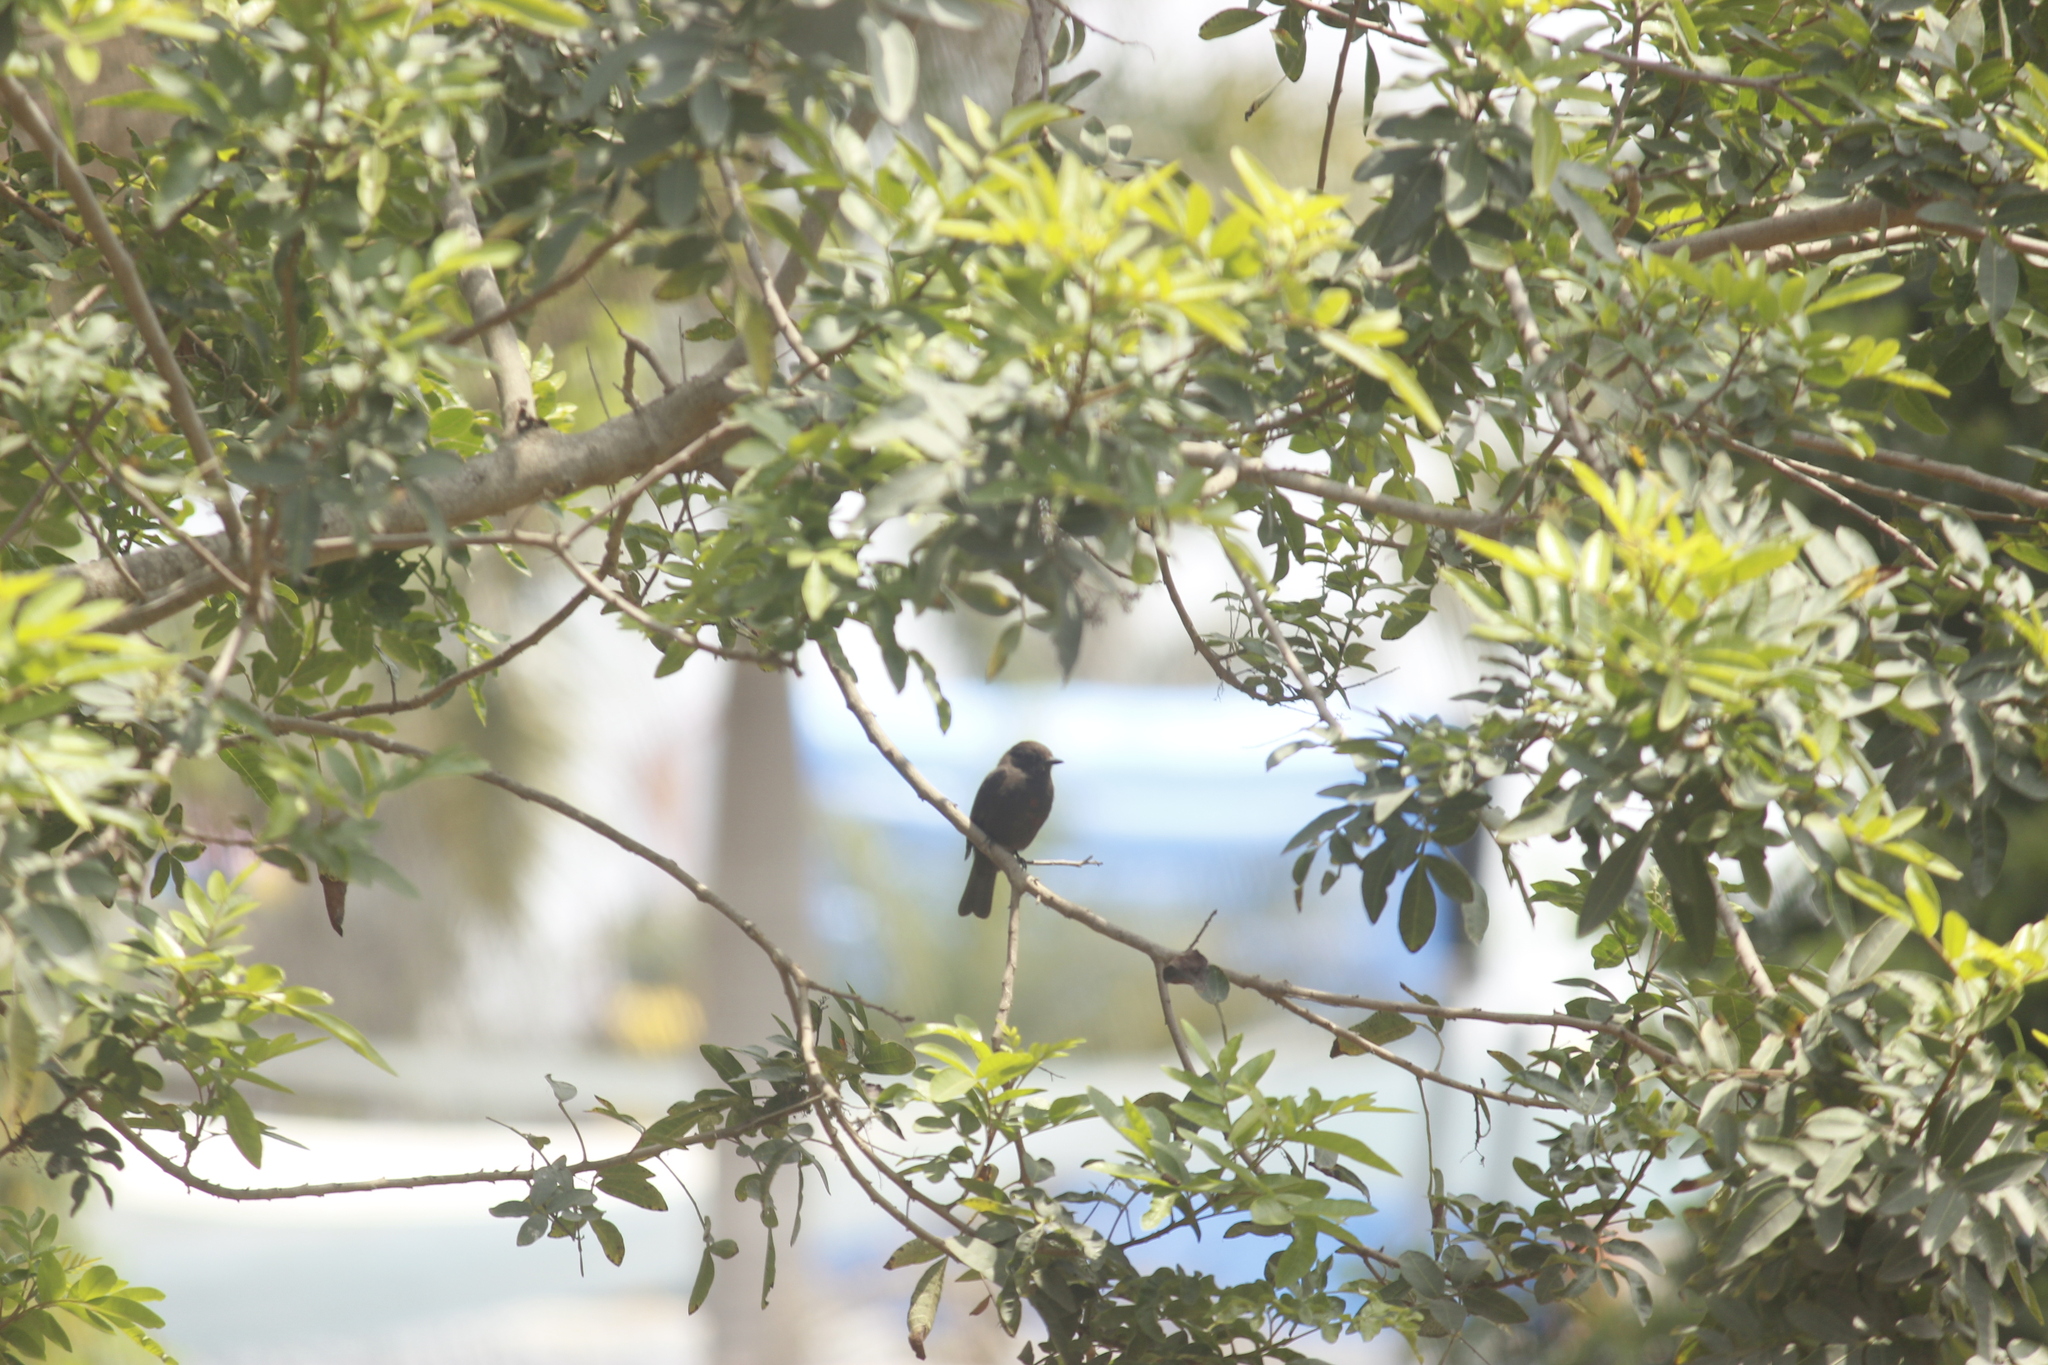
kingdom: Animalia
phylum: Chordata
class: Aves
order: Passeriformes
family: Tyrannidae
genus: Pyrocephalus
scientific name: Pyrocephalus rubinus
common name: Vermilion flycatcher
